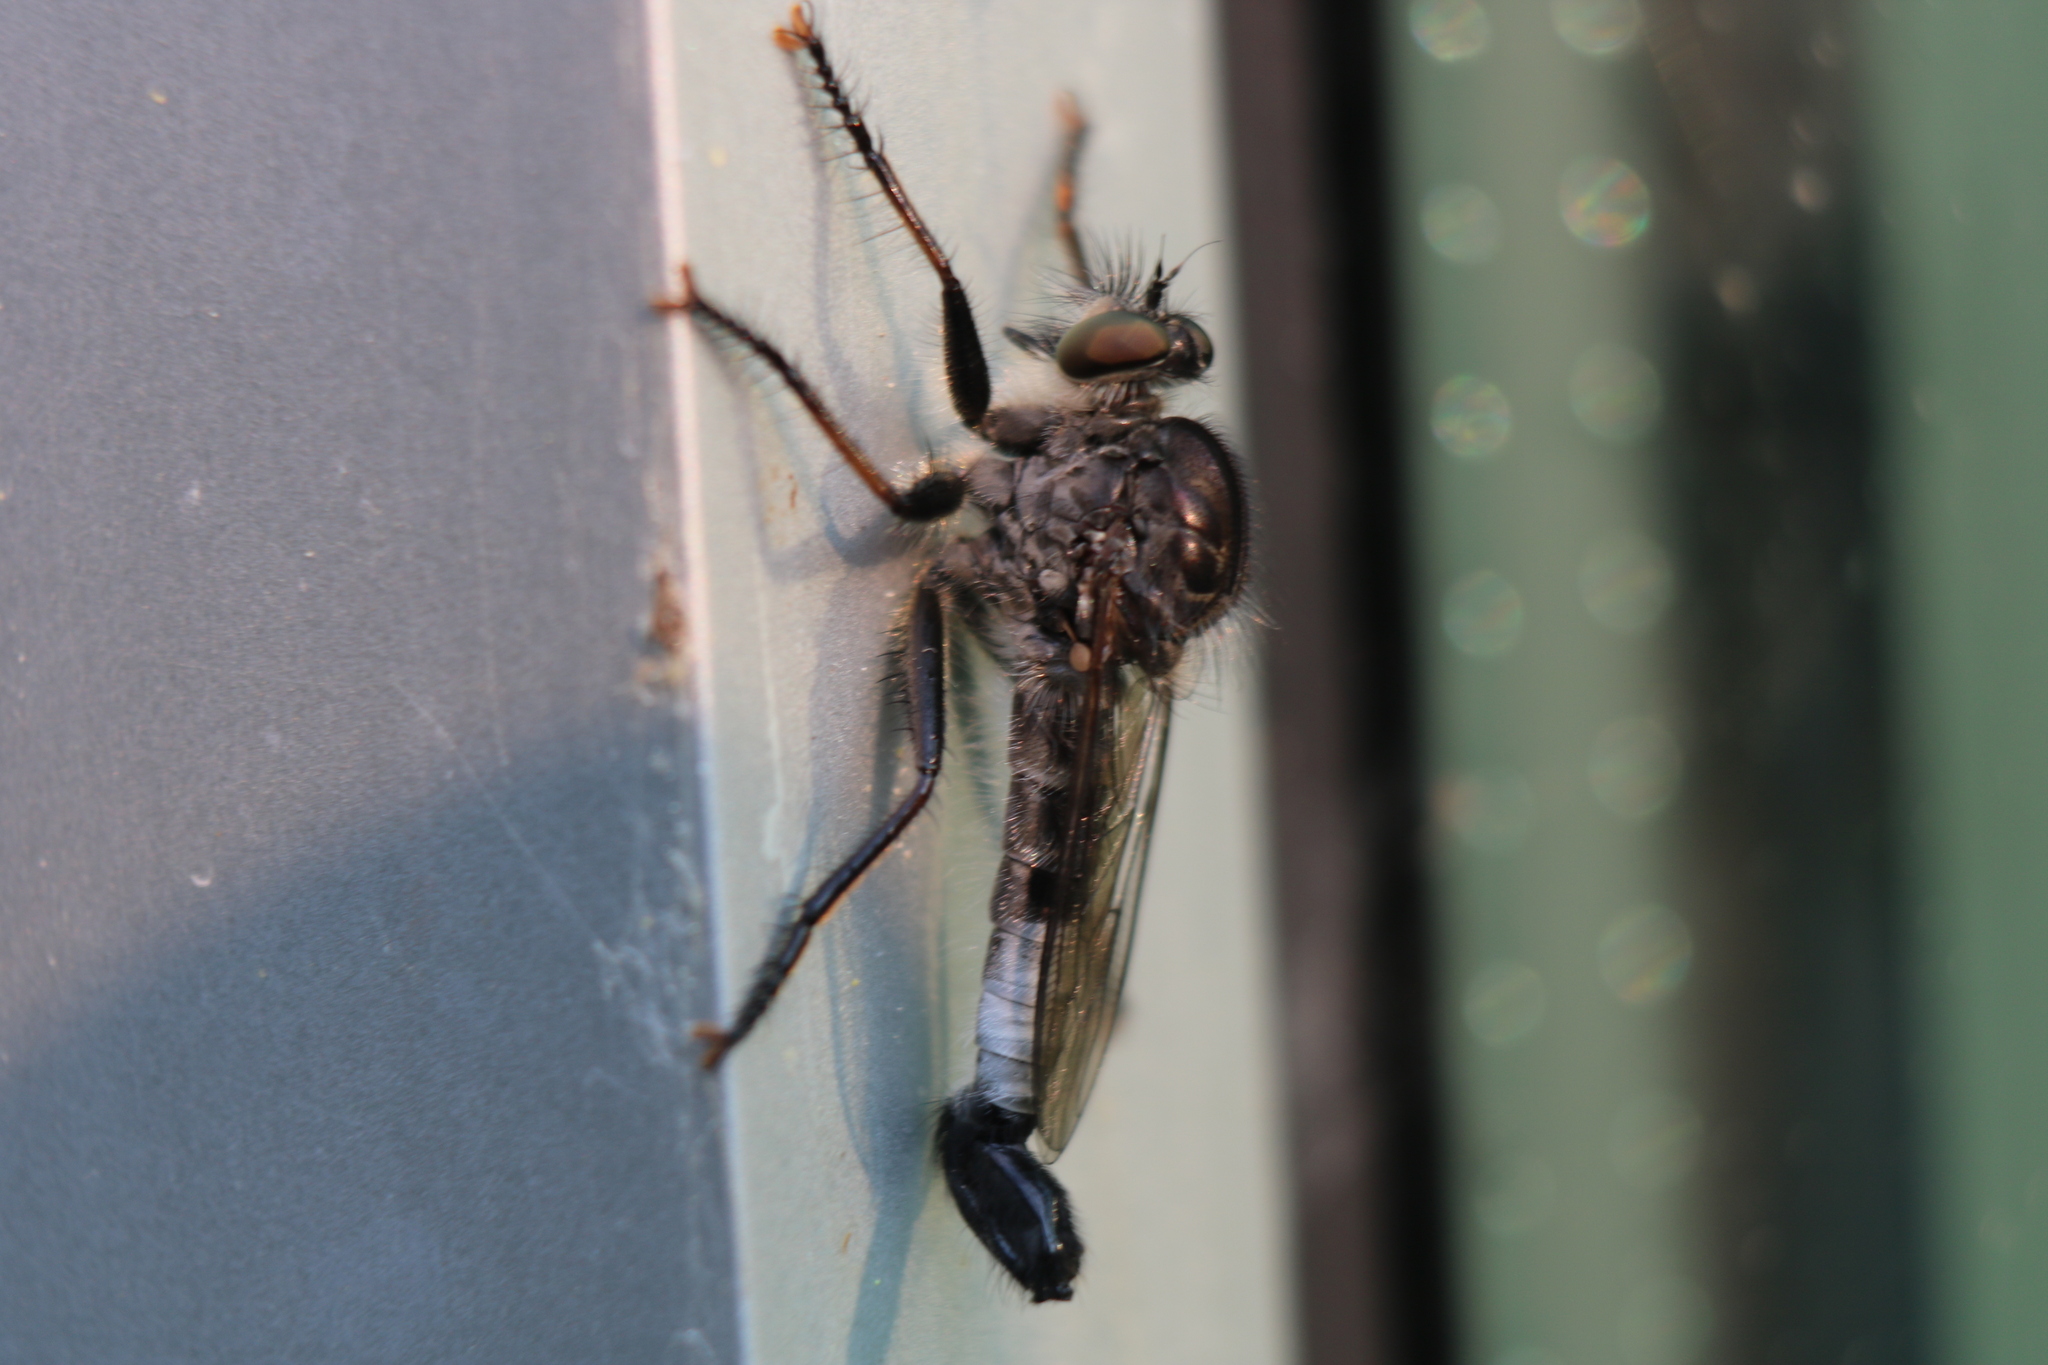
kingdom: Animalia
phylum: Arthropoda
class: Insecta
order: Diptera
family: Asilidae
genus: Efferia
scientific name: Efferia aestuans
